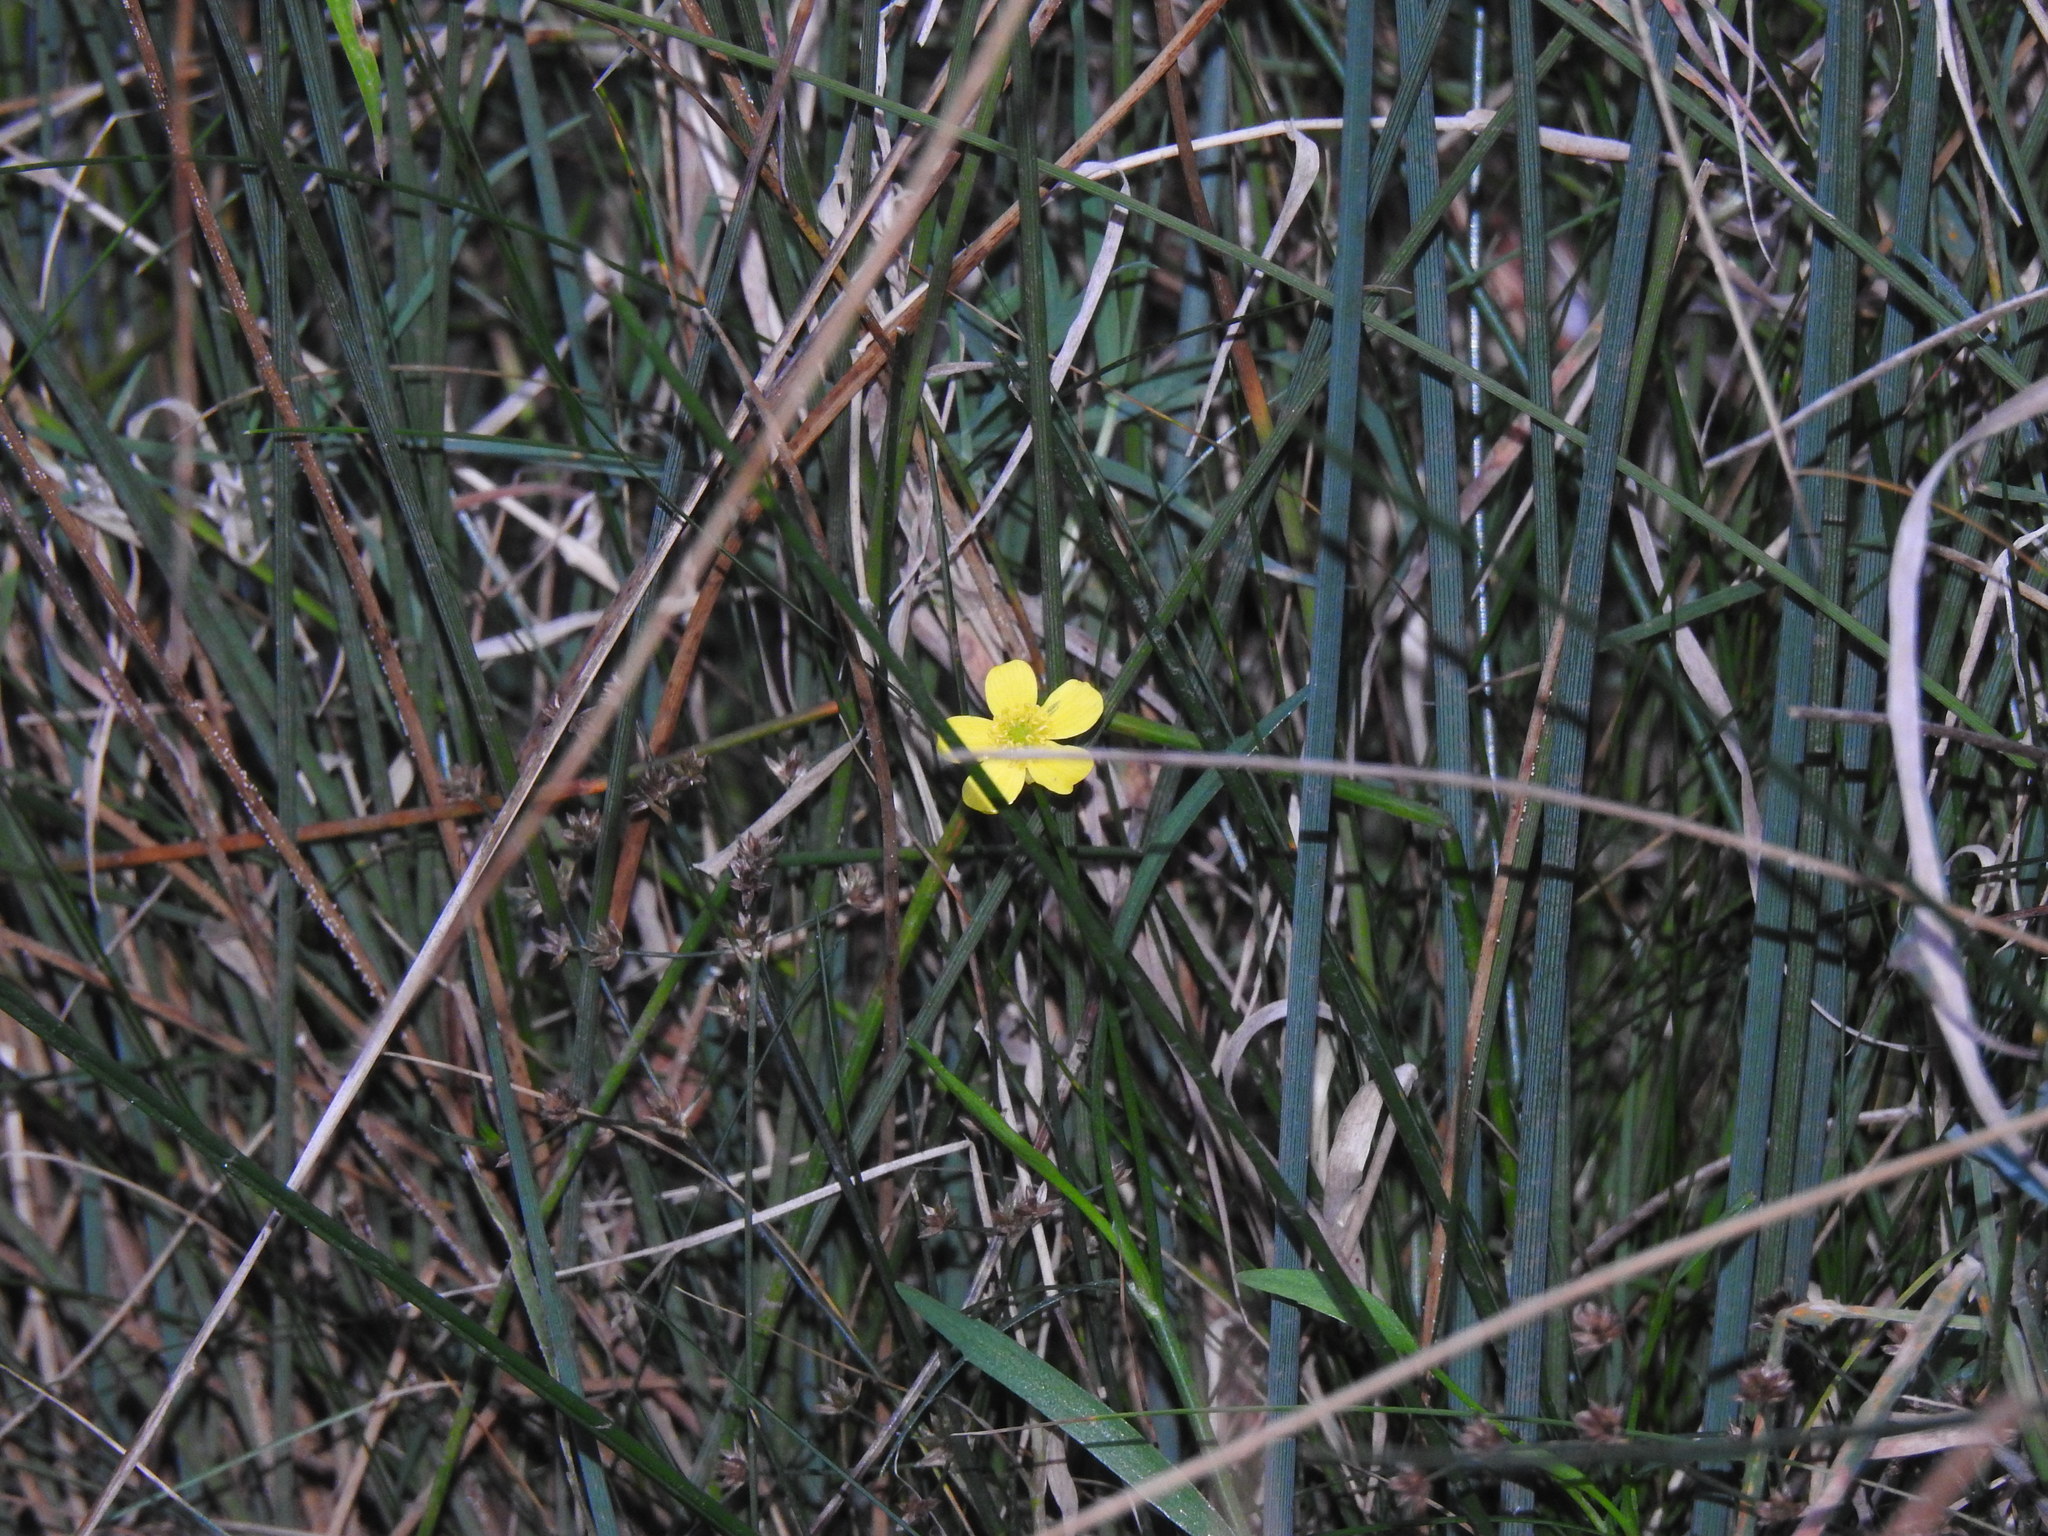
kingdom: Plantae
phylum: Tracheophyta
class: Magnoliopsida
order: Ranunculales
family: Ranunculaceae
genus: Ranunculus
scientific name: Ranunculus flammula
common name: Lesser spearwort
